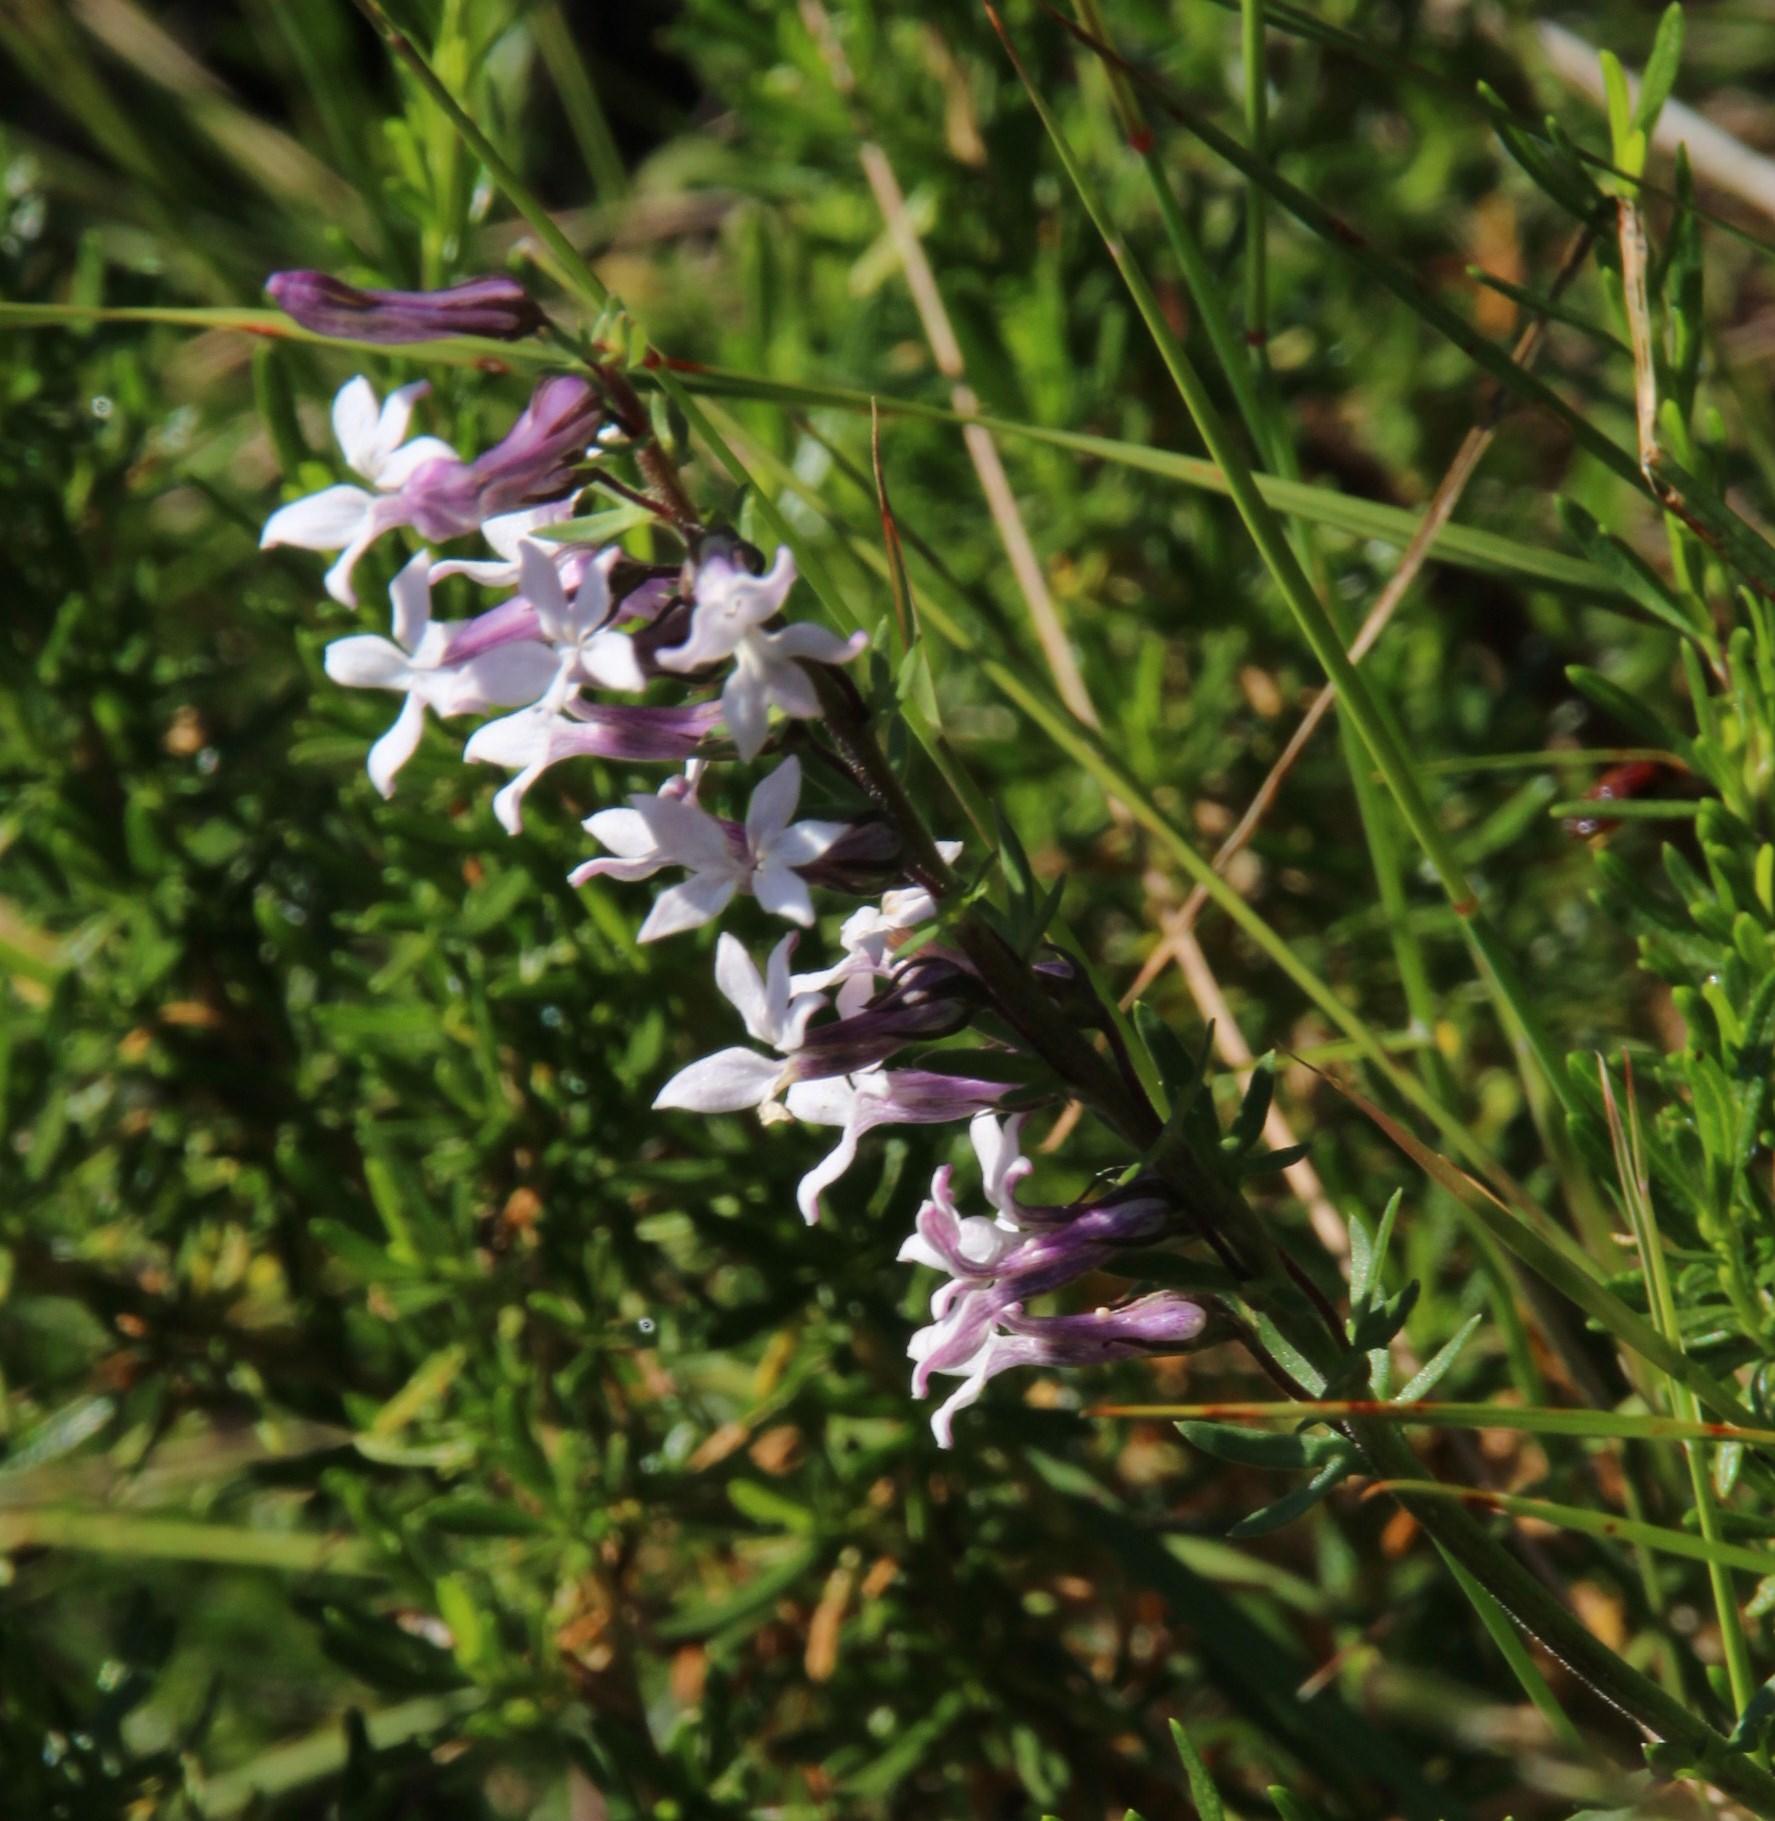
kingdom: Plantae
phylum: Tracheophyta
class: Magnoliopsida
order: Asterales
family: Campanulaceae
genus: Cyphia
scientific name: Cyphia bulbosa
